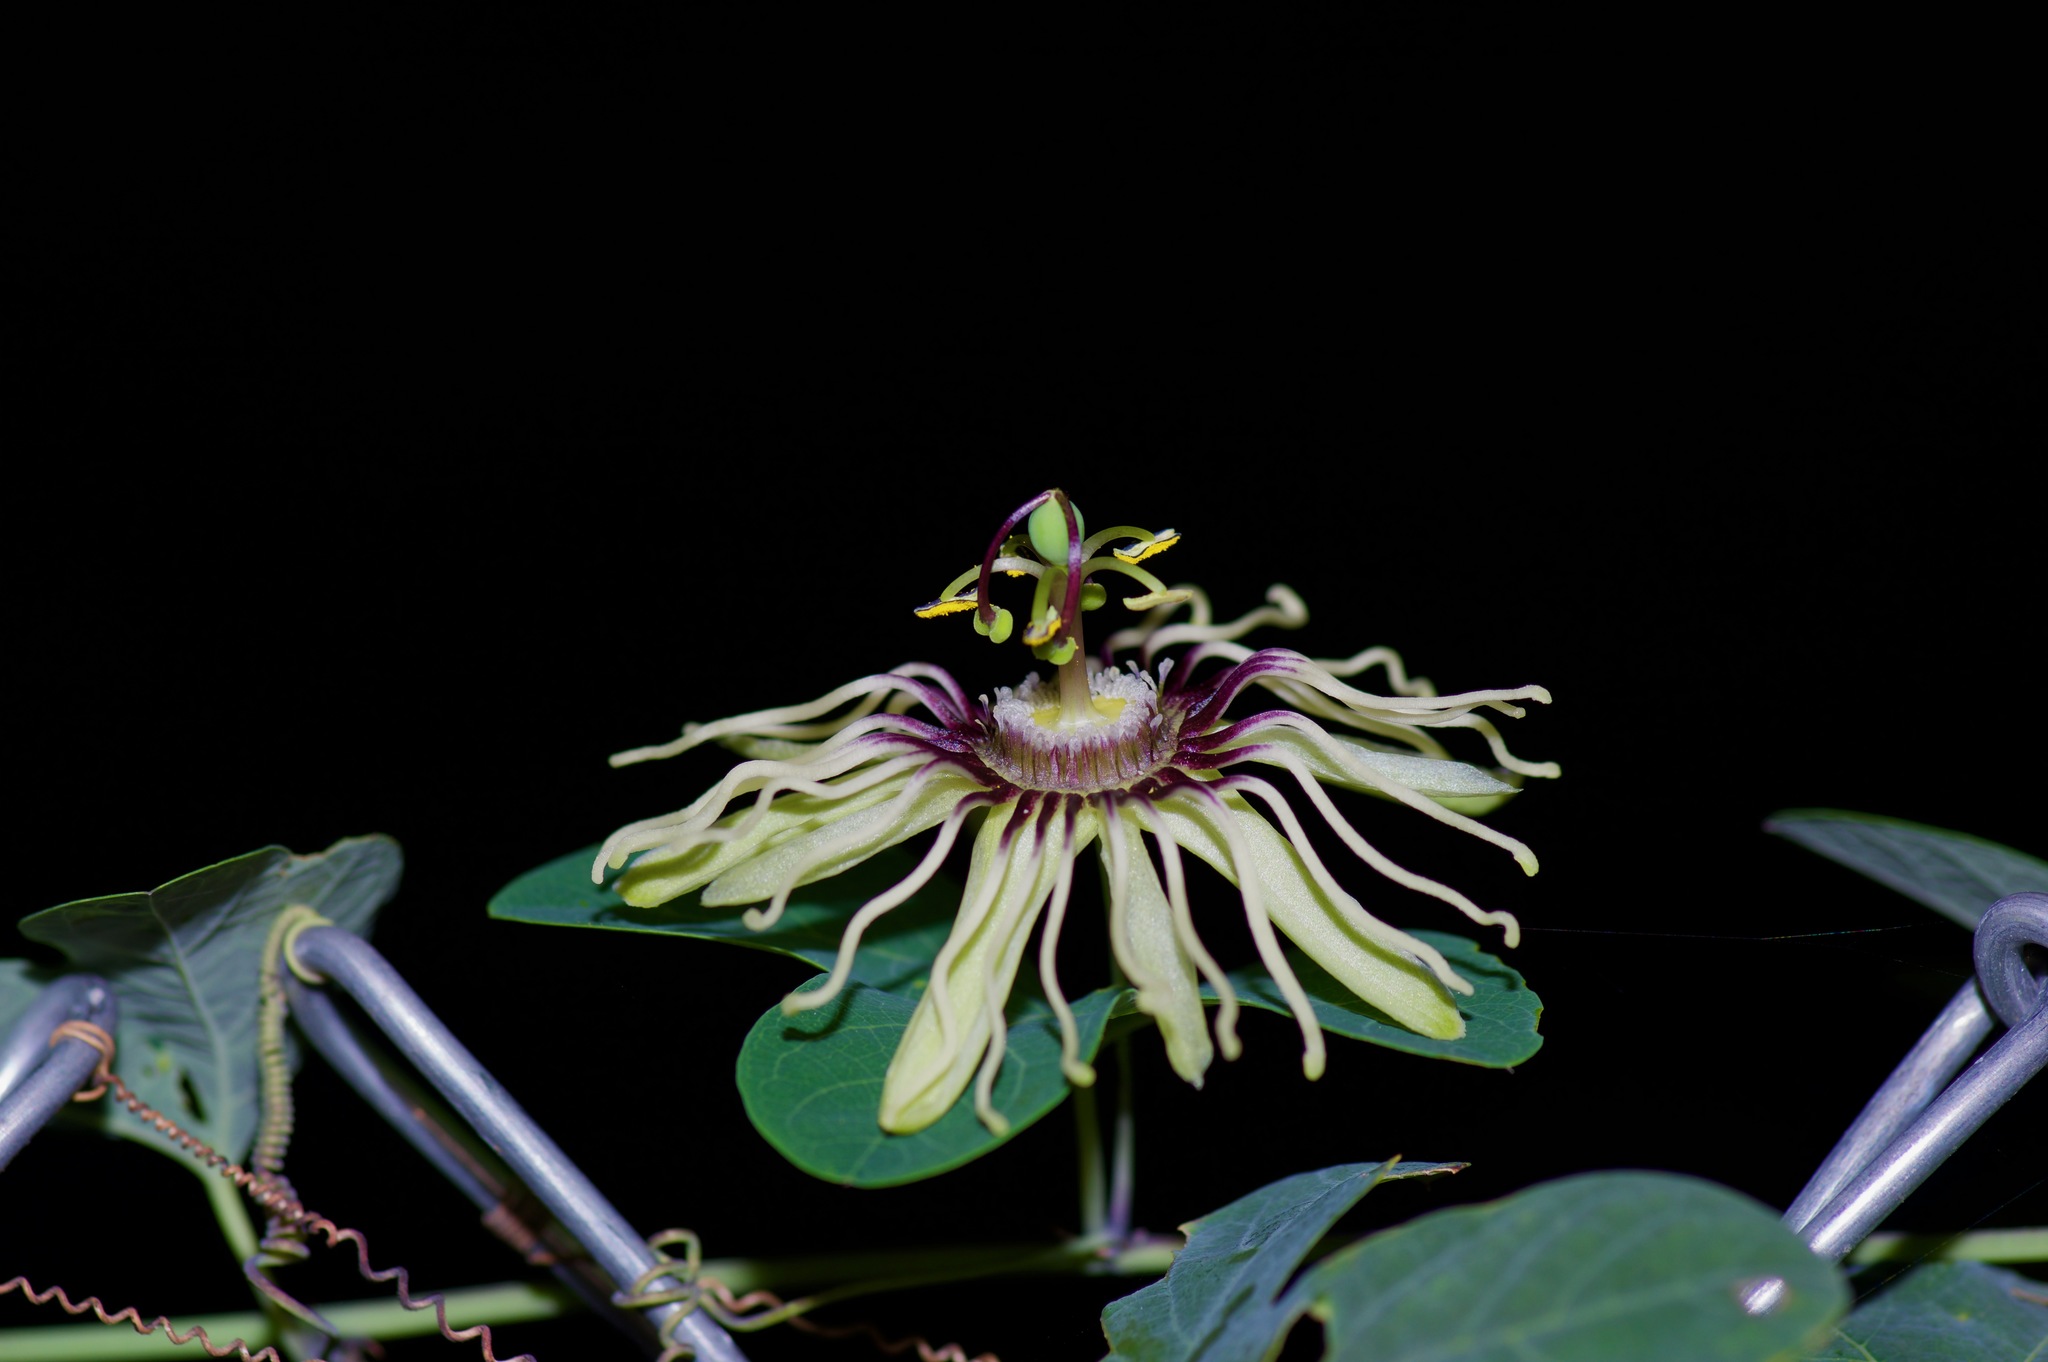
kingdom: Plantae
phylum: Tracheophyta
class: Magnoliopsida
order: Malpighiales
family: Passifloraceae
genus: Passiflora
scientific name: Passiflora affinis
